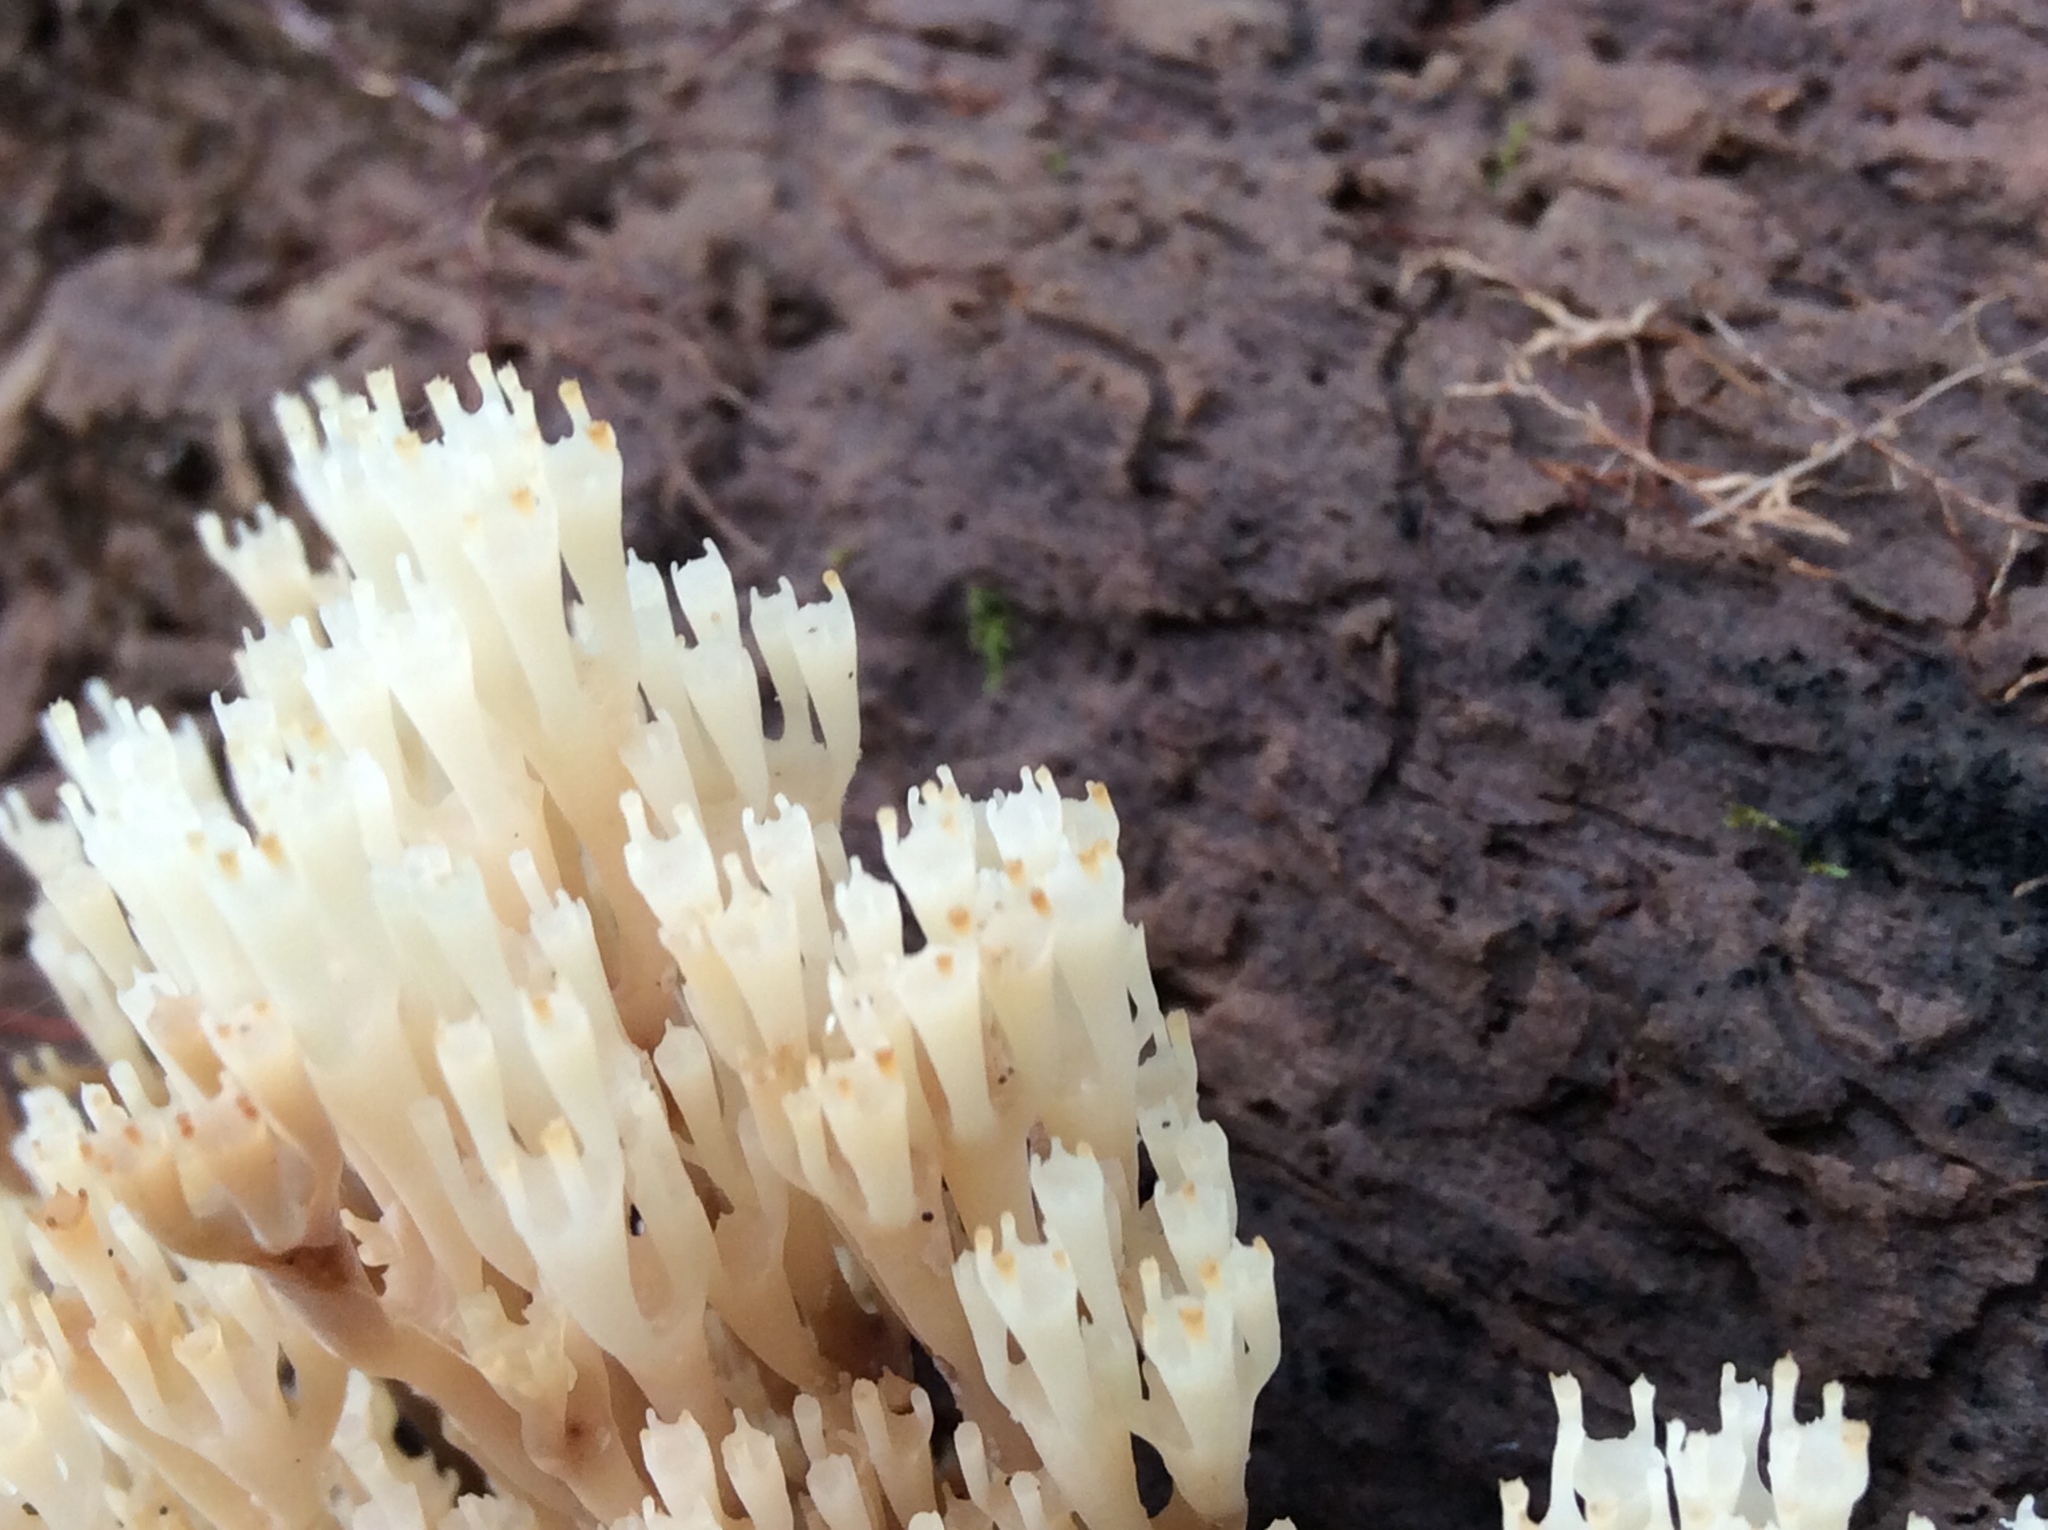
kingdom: Fungi
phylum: Basidiomycota
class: Agaricomycetes
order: Russulales
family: Auriscalpiaceae
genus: Artomyces
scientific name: Artomyces pyxidatus
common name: Crown-tipped coral fungus
